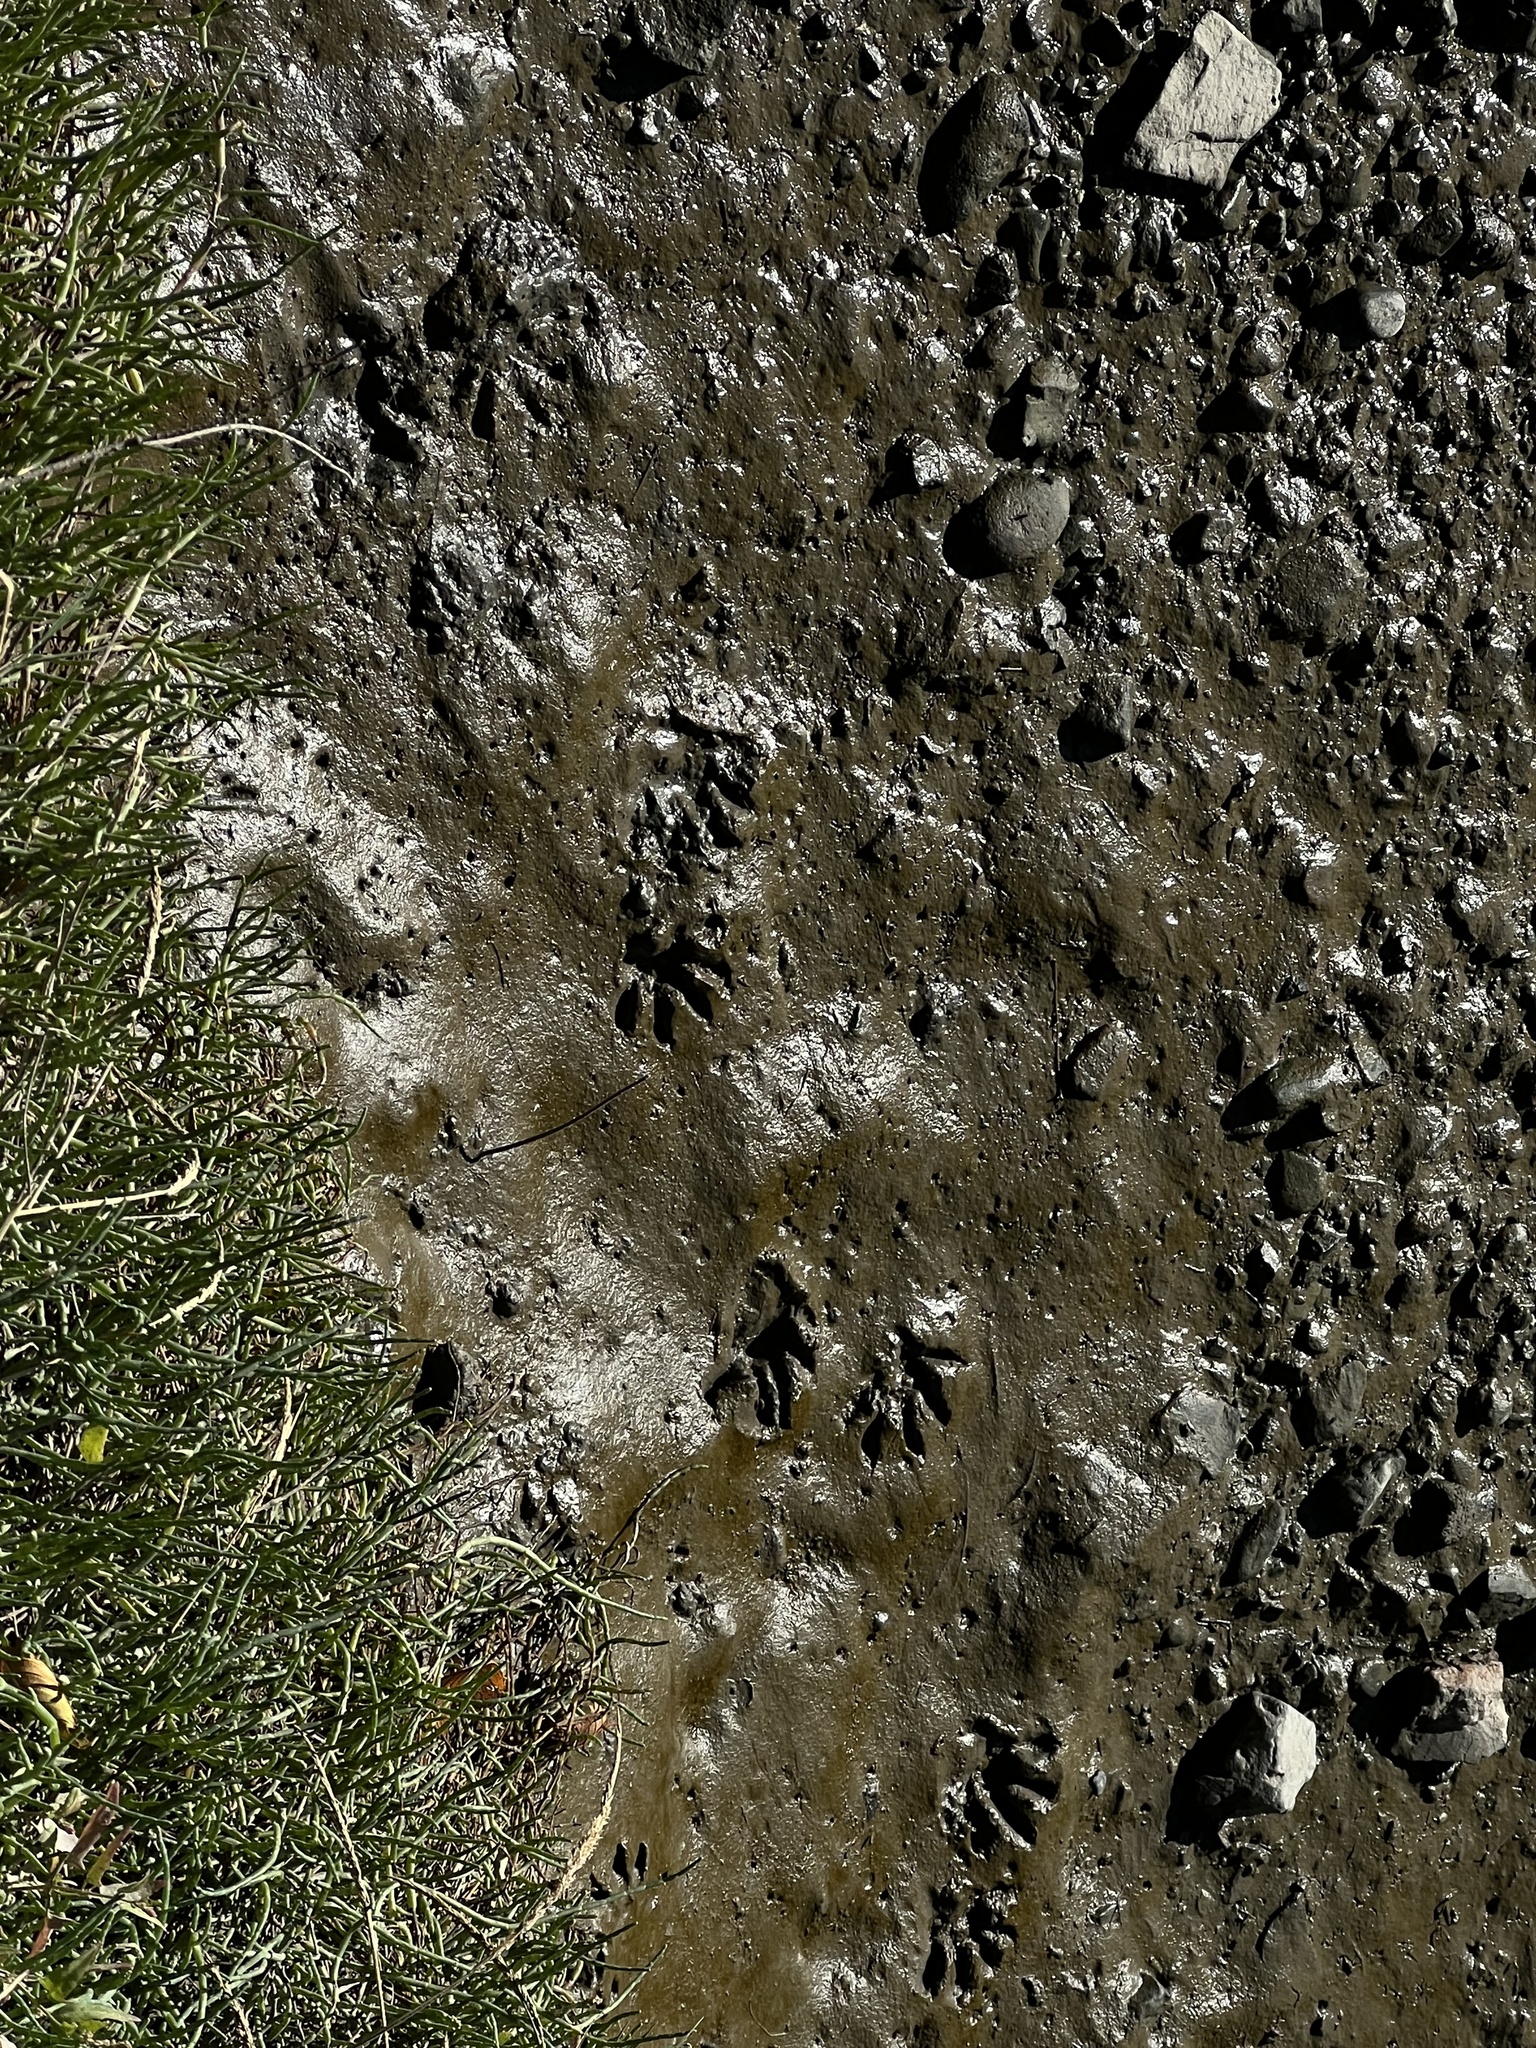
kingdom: Animalia
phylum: Chordata
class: Mammalia
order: Carnivora
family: Procyonidae
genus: Procyon
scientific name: Procyon lotor
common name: Raccoon
